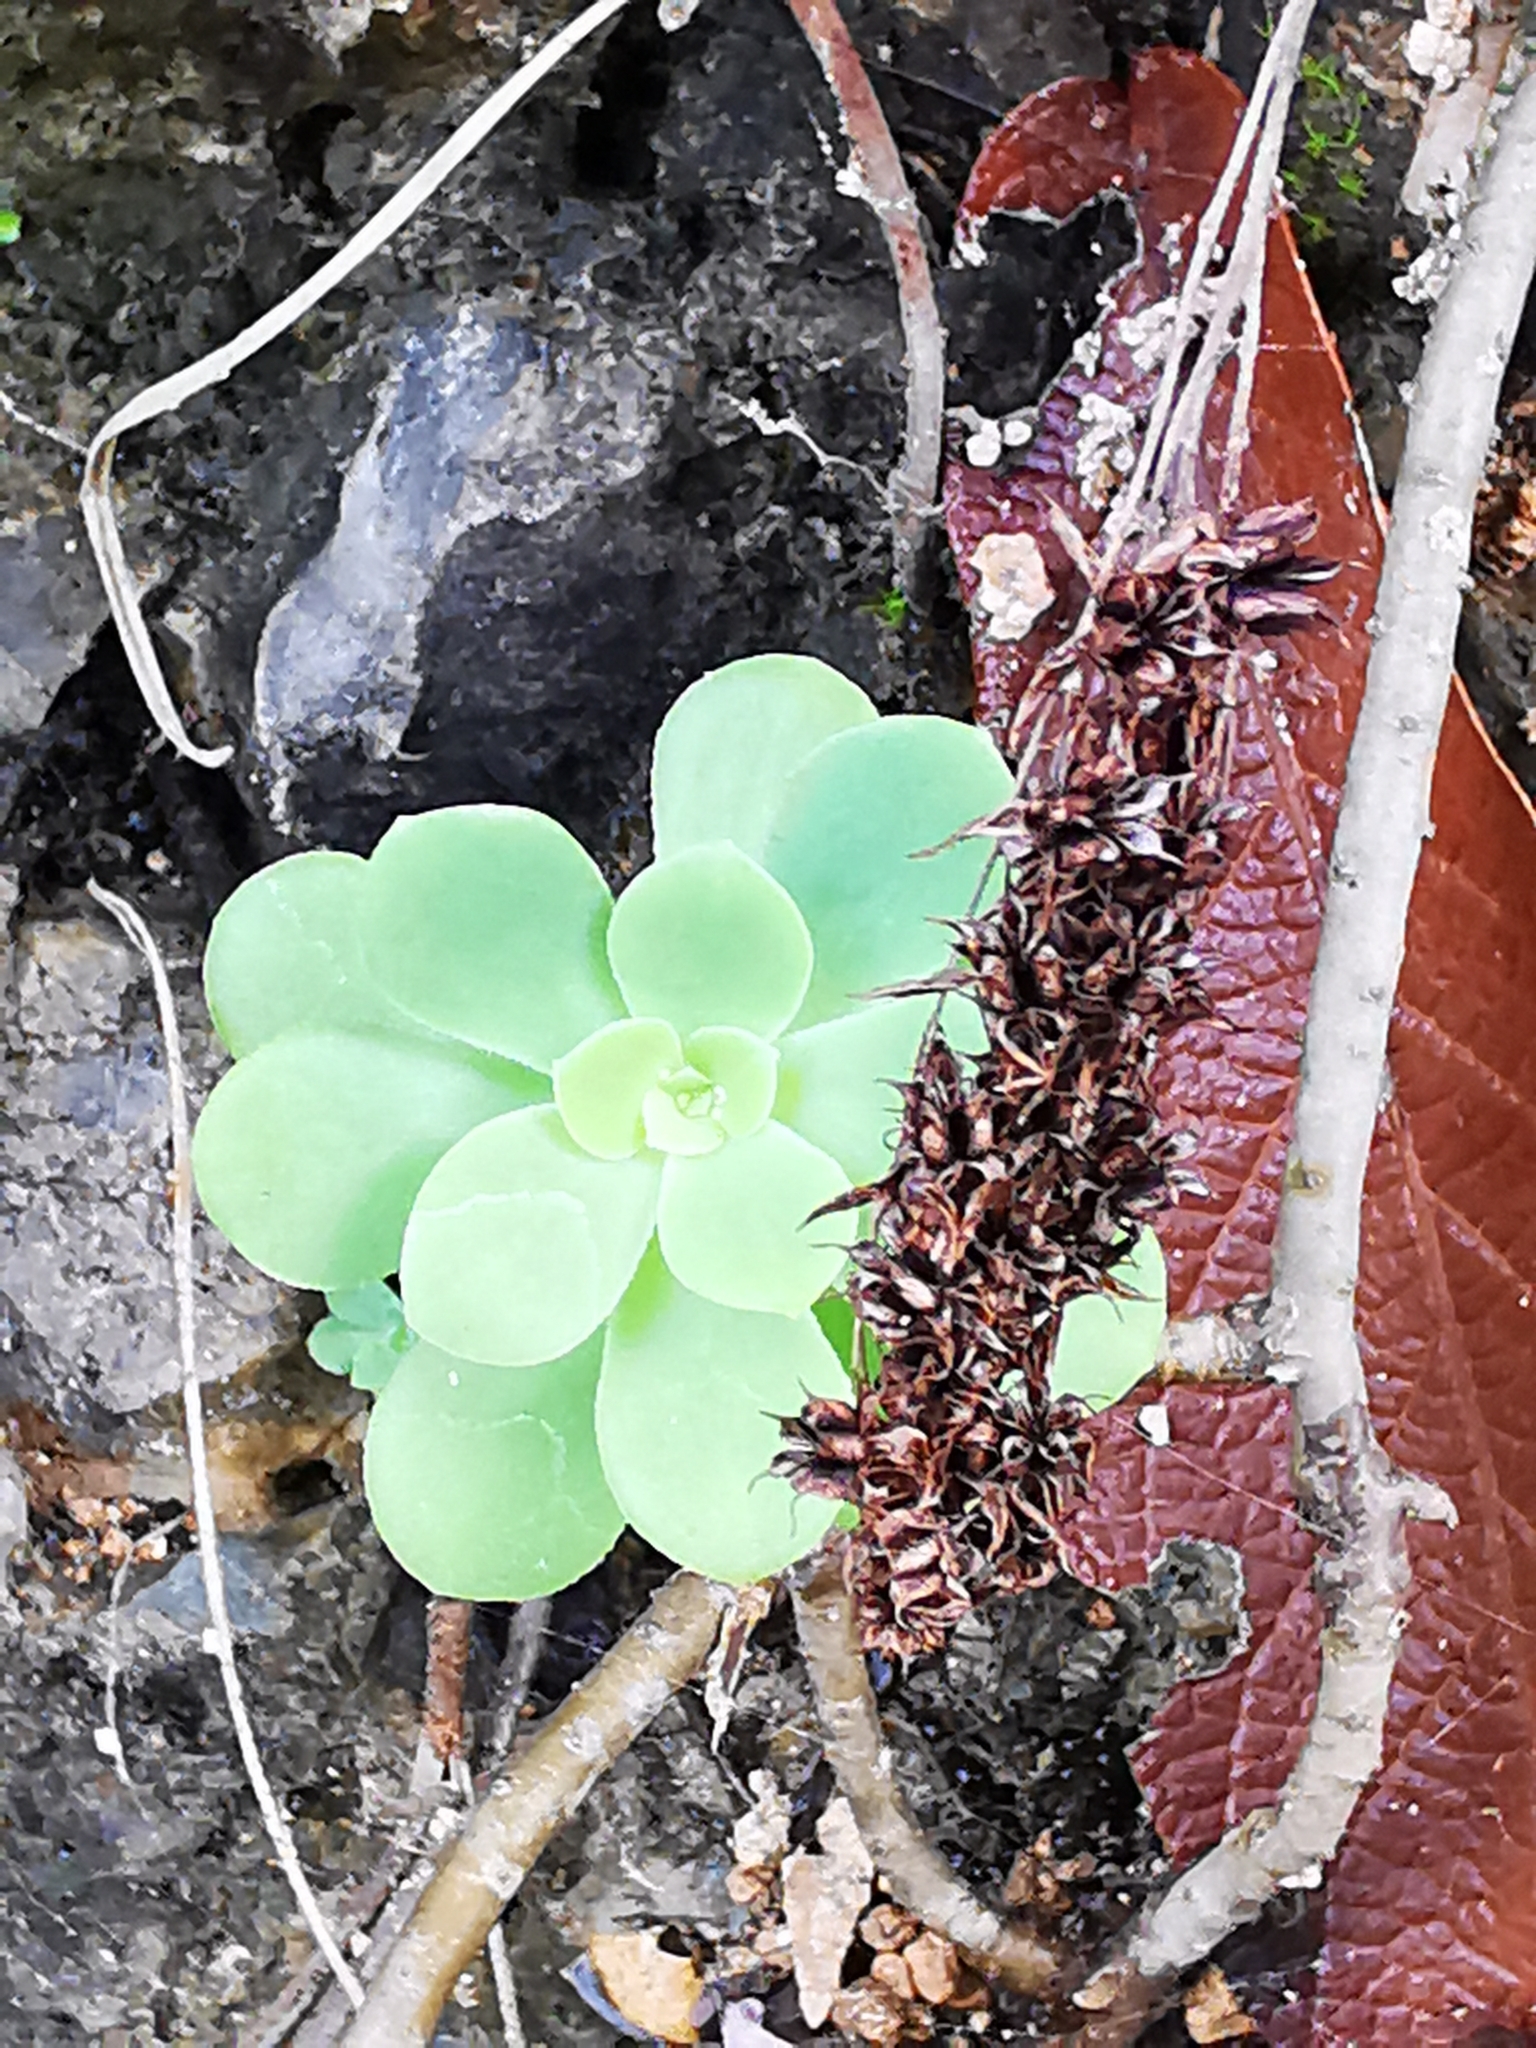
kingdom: Plantae
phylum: Tracheophyta
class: Magnoliopsida
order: Saxifragales
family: Crassulaceae
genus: Sedum
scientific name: Sedum palmeri
